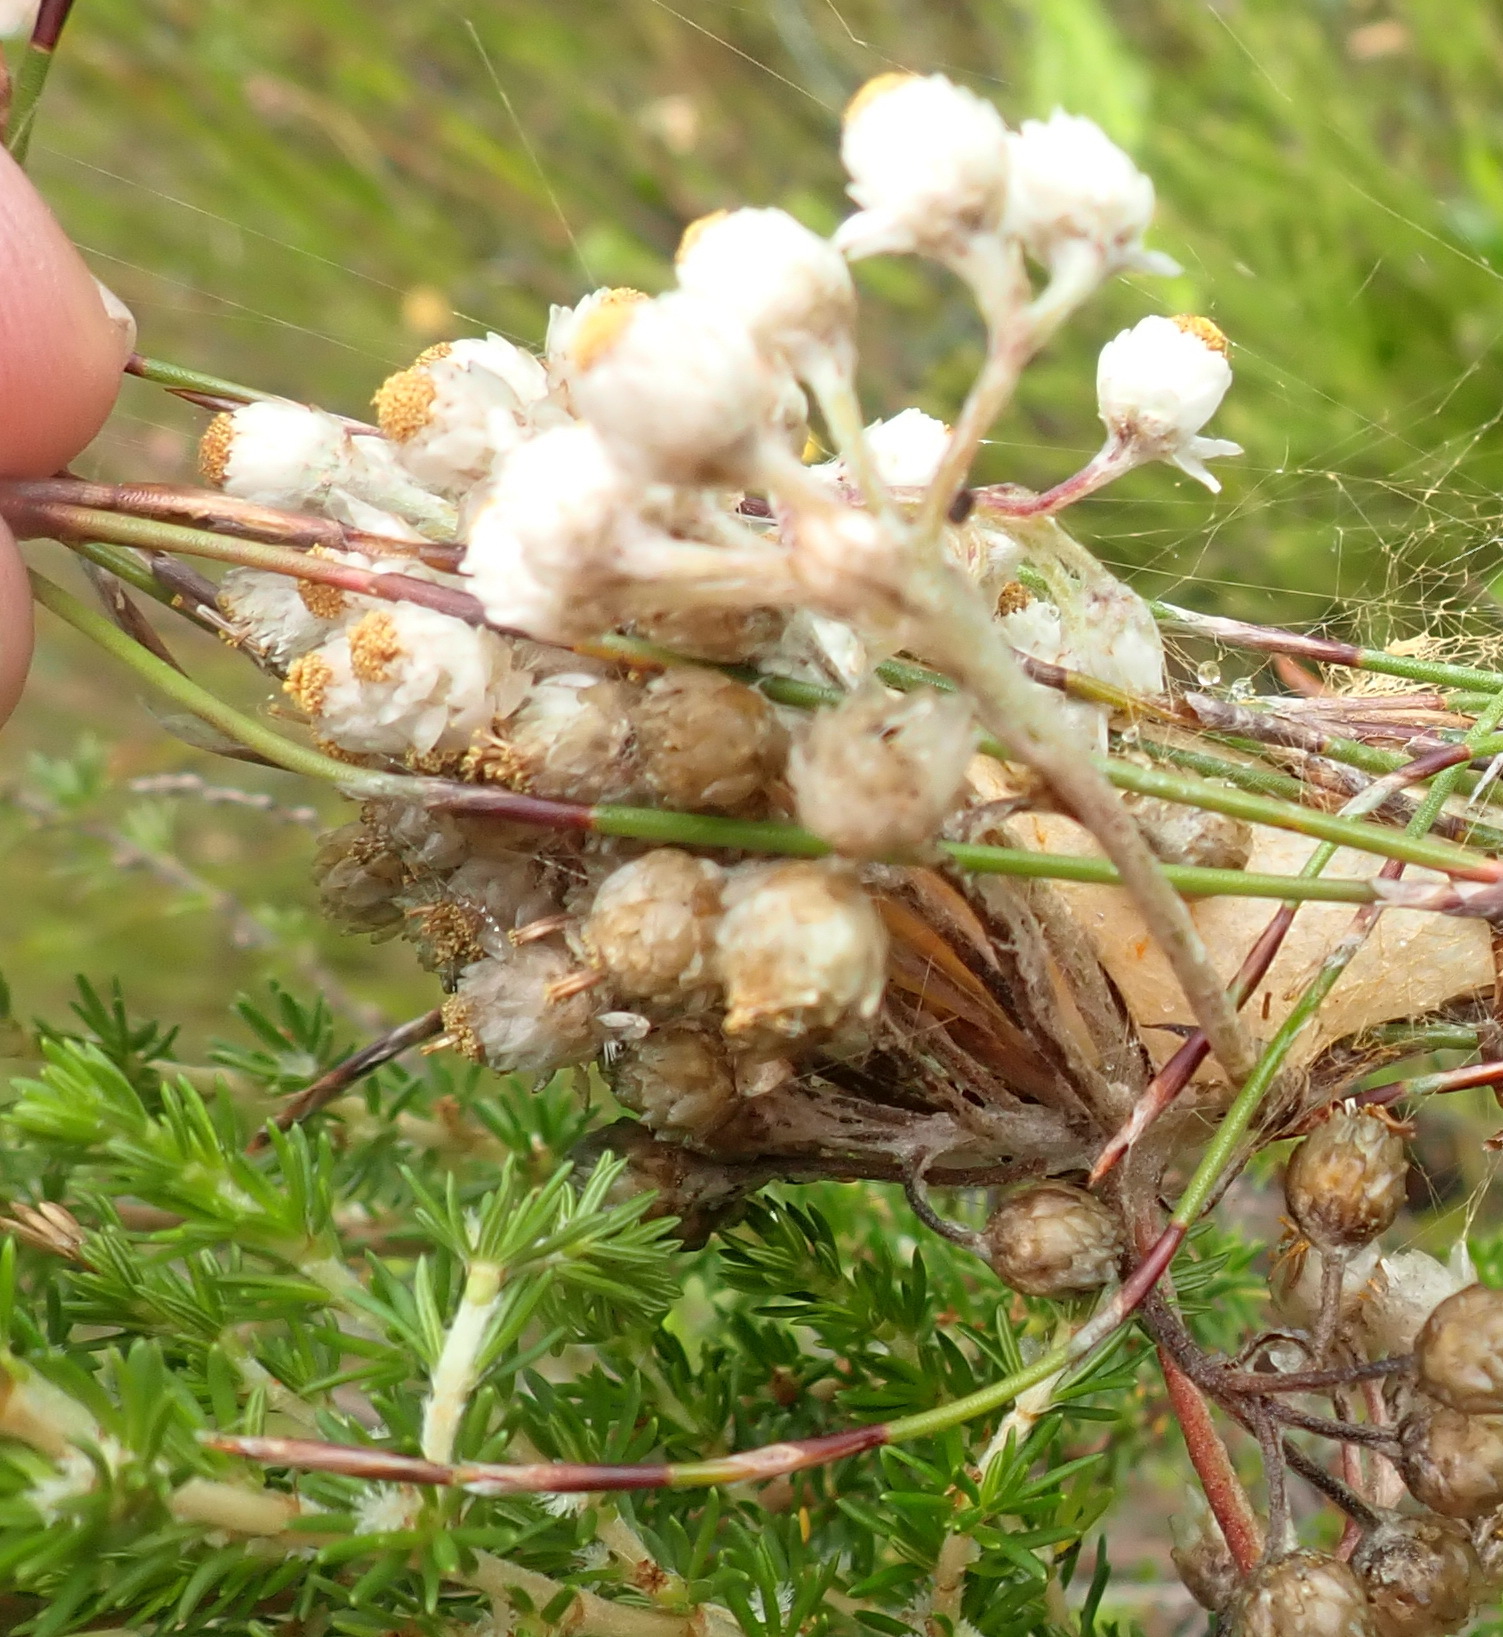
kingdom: Plantae
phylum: Tracheophyta
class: Magnoliopsida
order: Asterales
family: Asteraceae
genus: Helichrysum
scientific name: Helichrysum teretifolium
